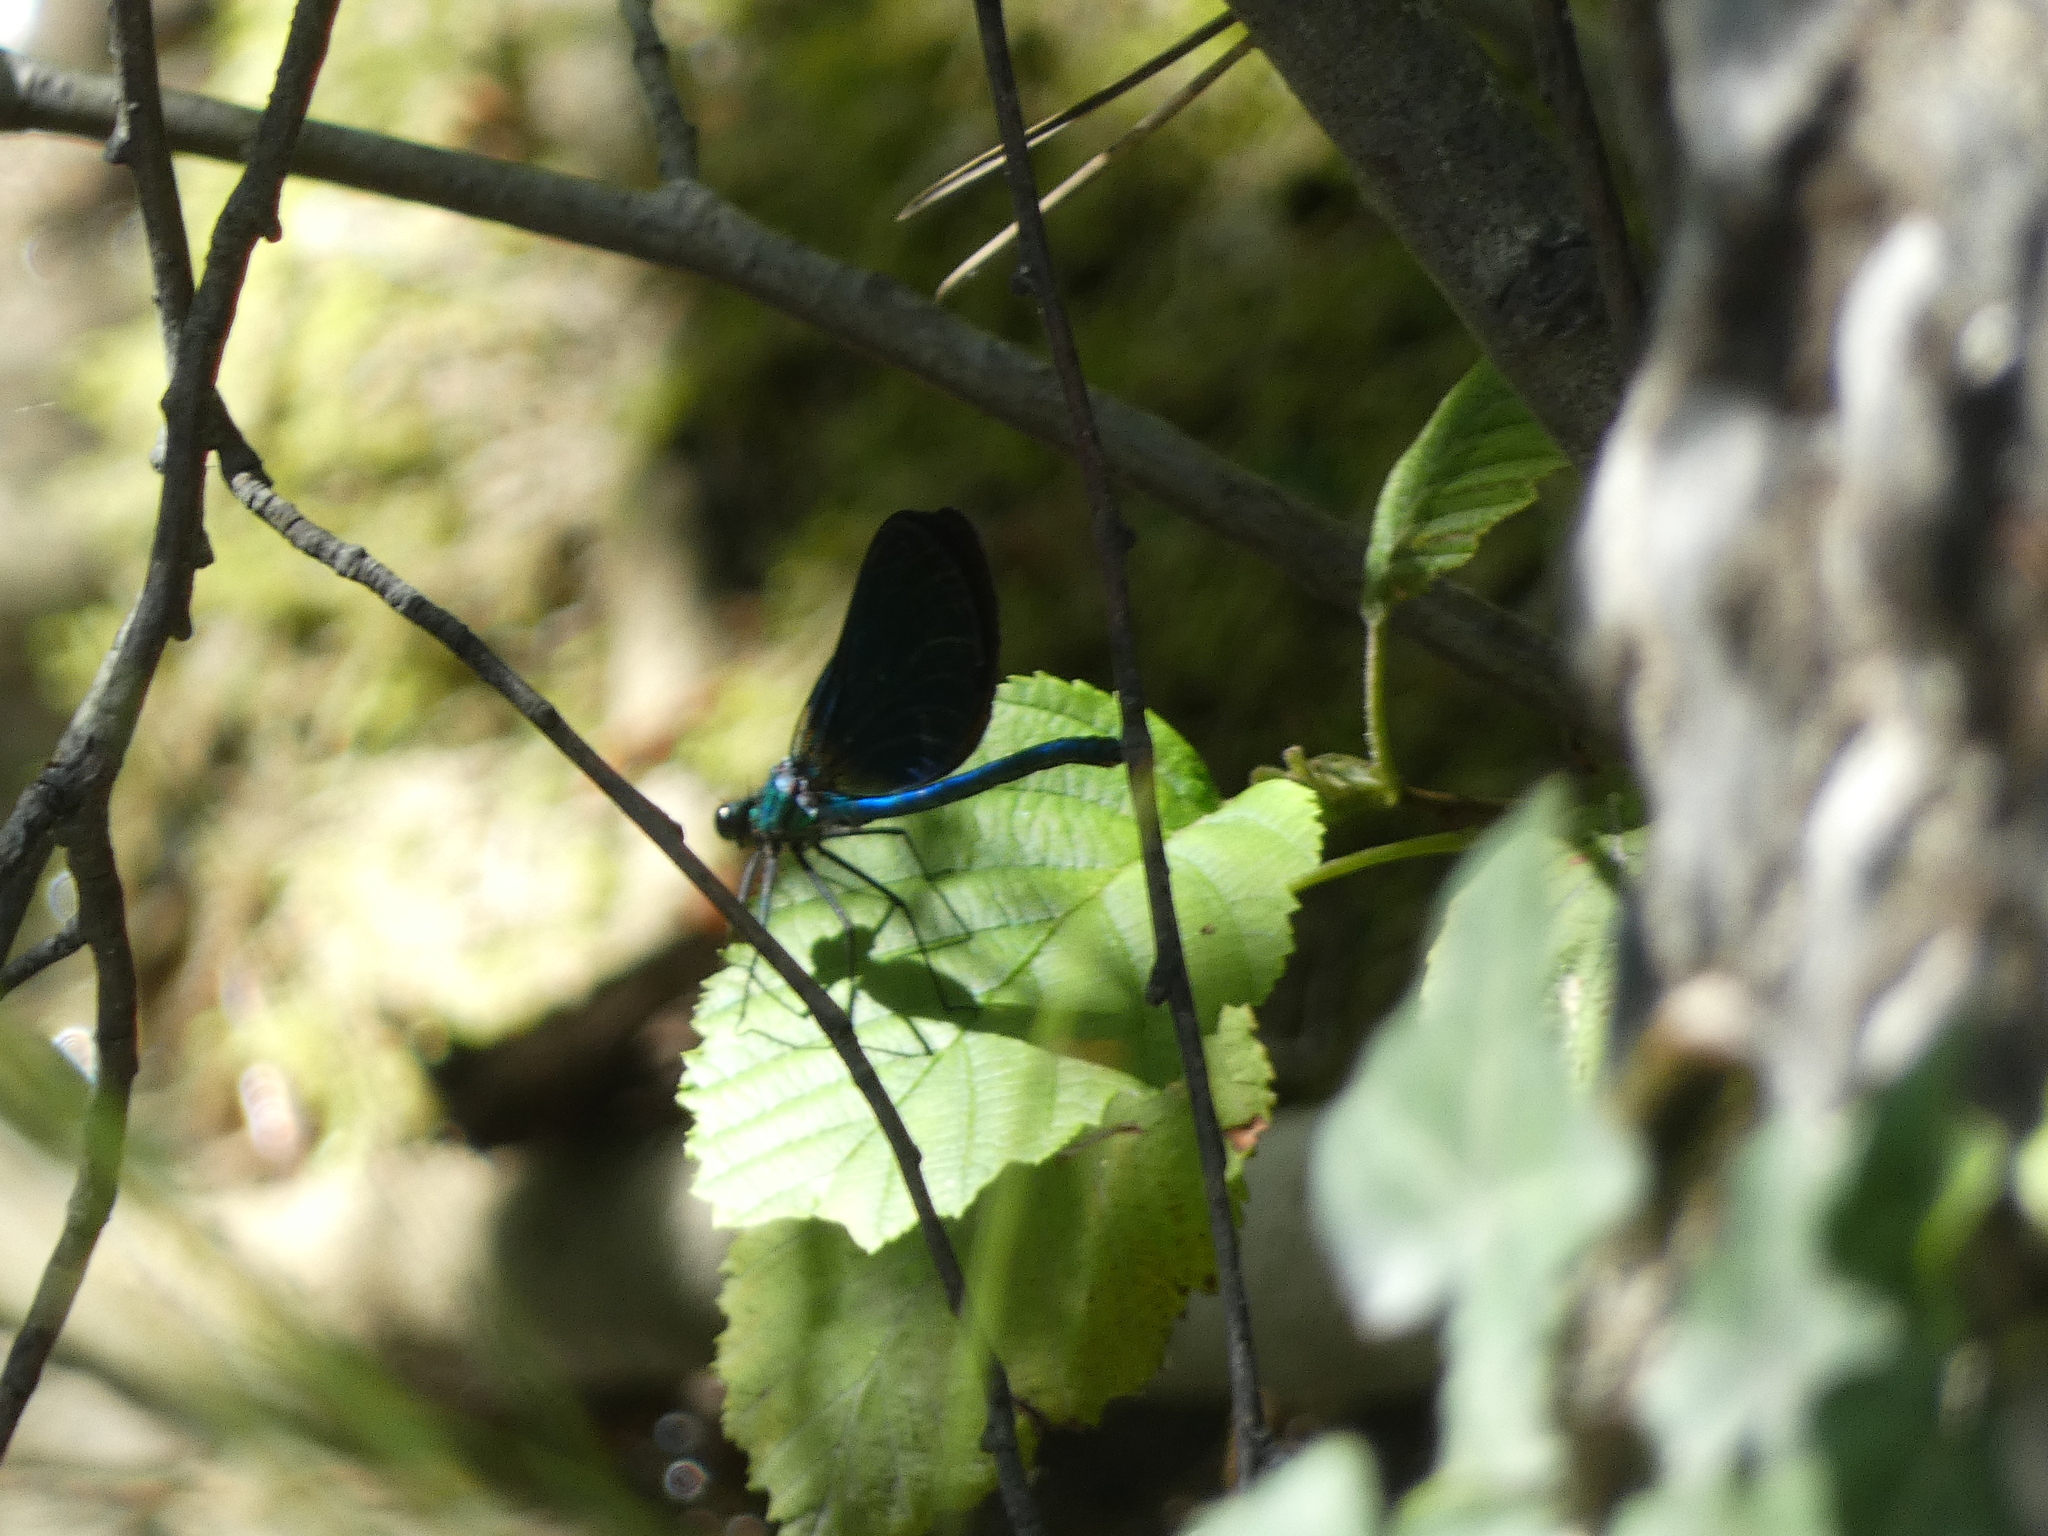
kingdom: Animalia
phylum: Arthropoda
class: Insecta
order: Odonata
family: Calopterygidae
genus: Calopteryx
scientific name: Calopteryx virgo
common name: Beautiful demoiselle
